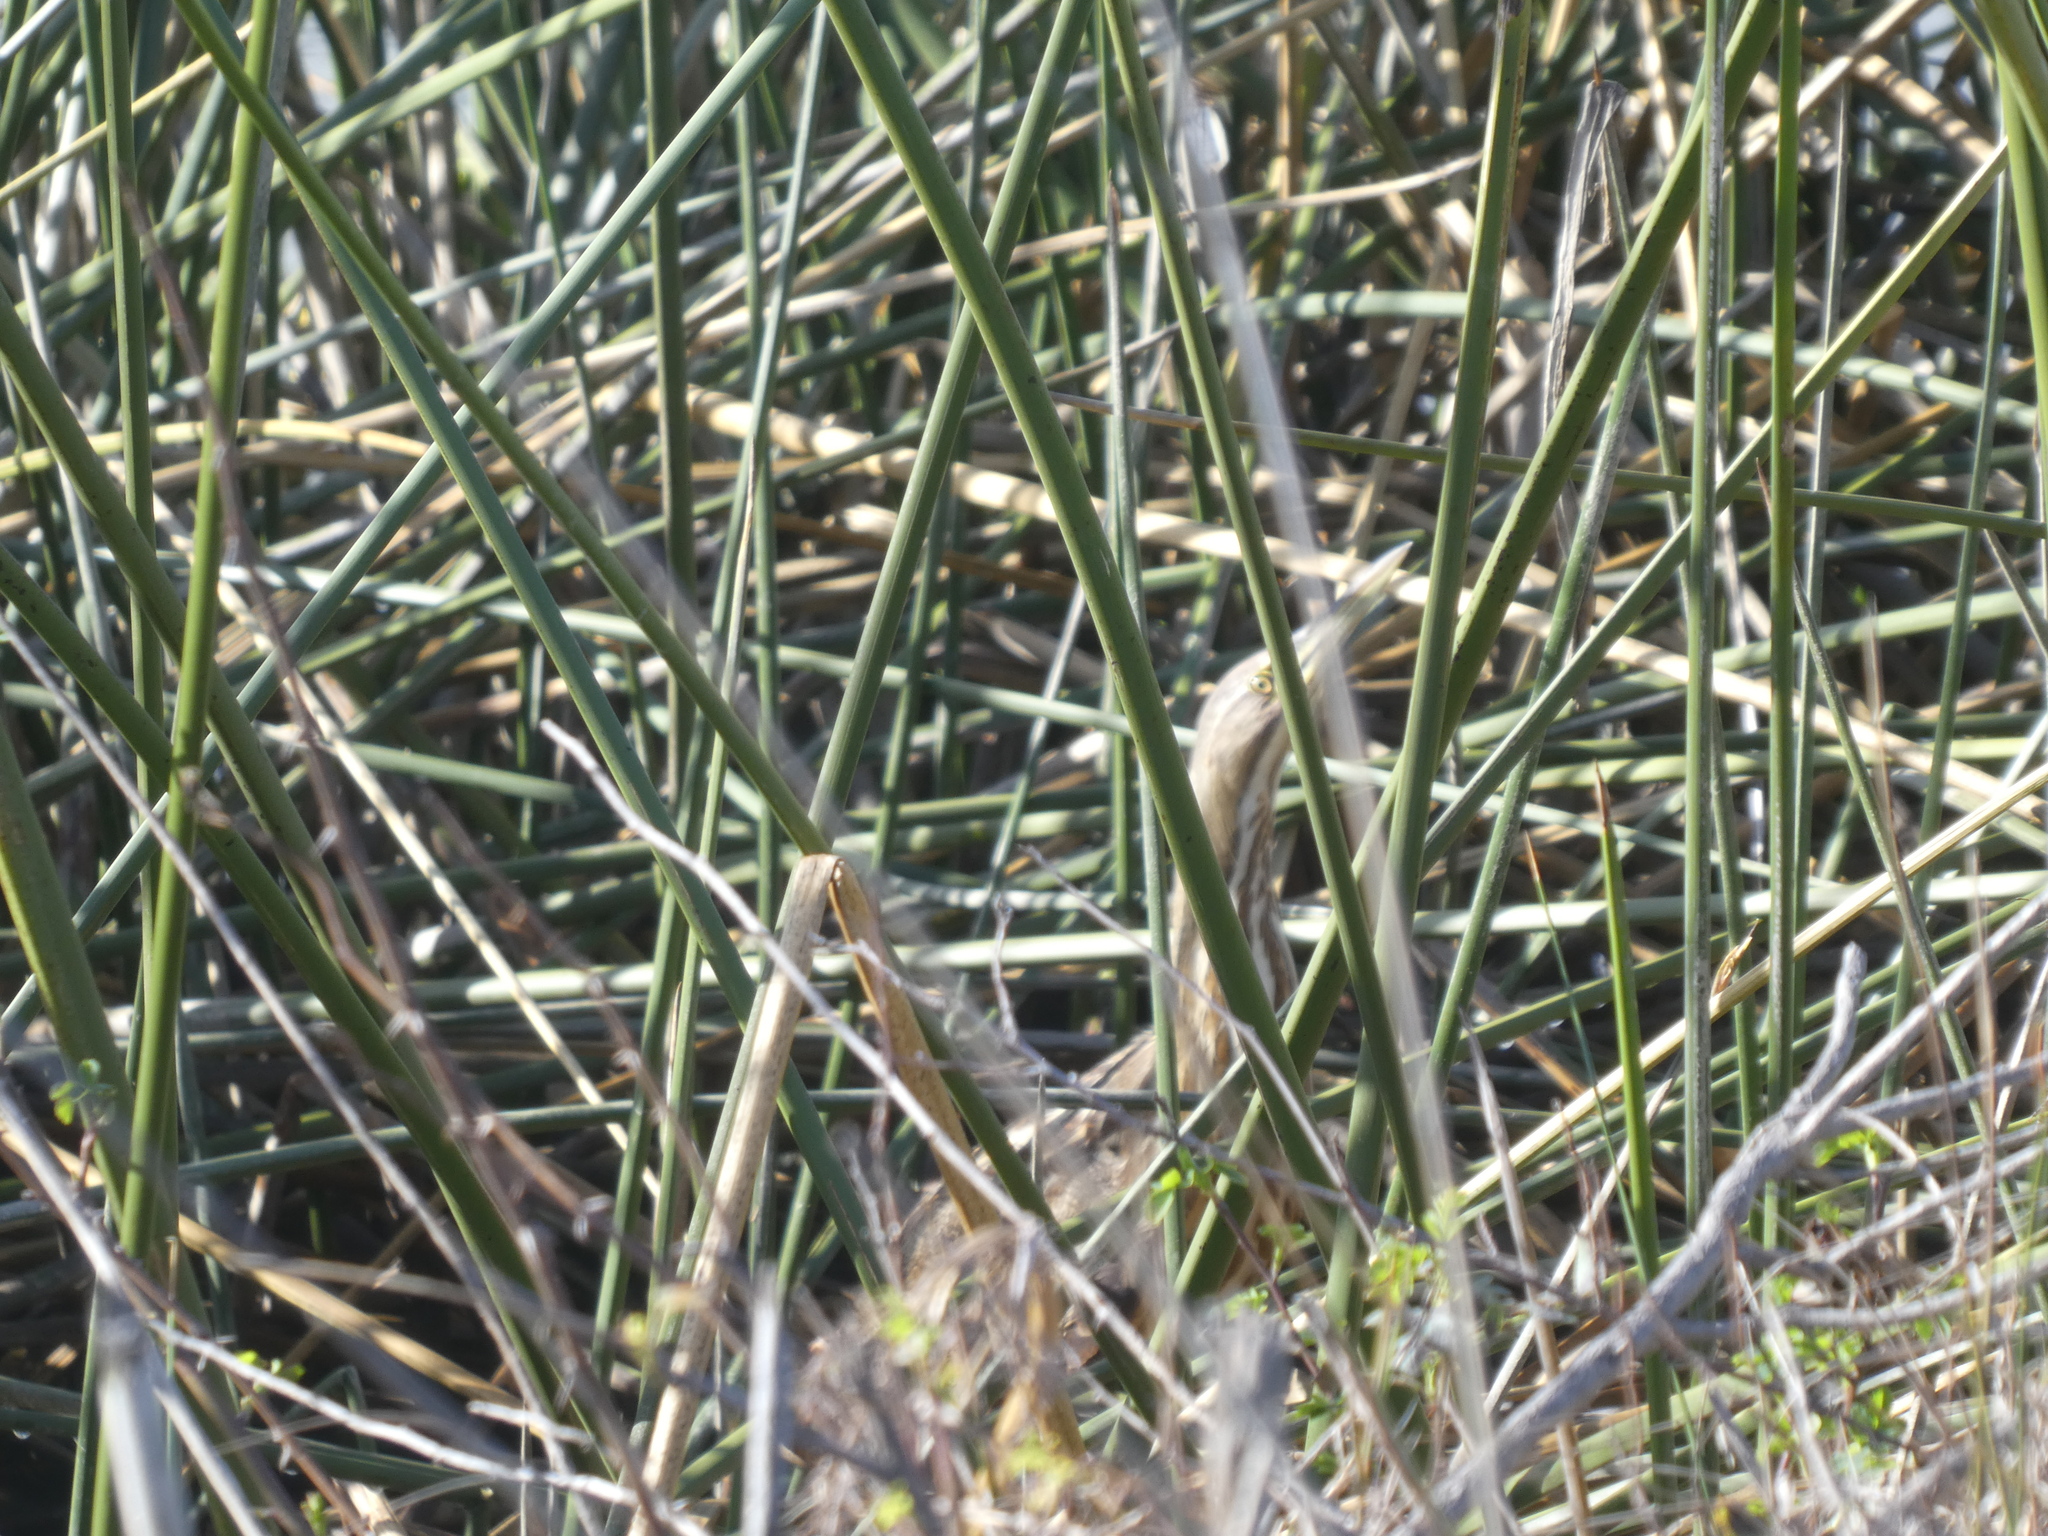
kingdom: Animalia
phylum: Chordata
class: Aves
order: Pelecaniformes
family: Ardeidae
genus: Botaurus
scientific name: Botaurus lentiginosus
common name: American bittern
